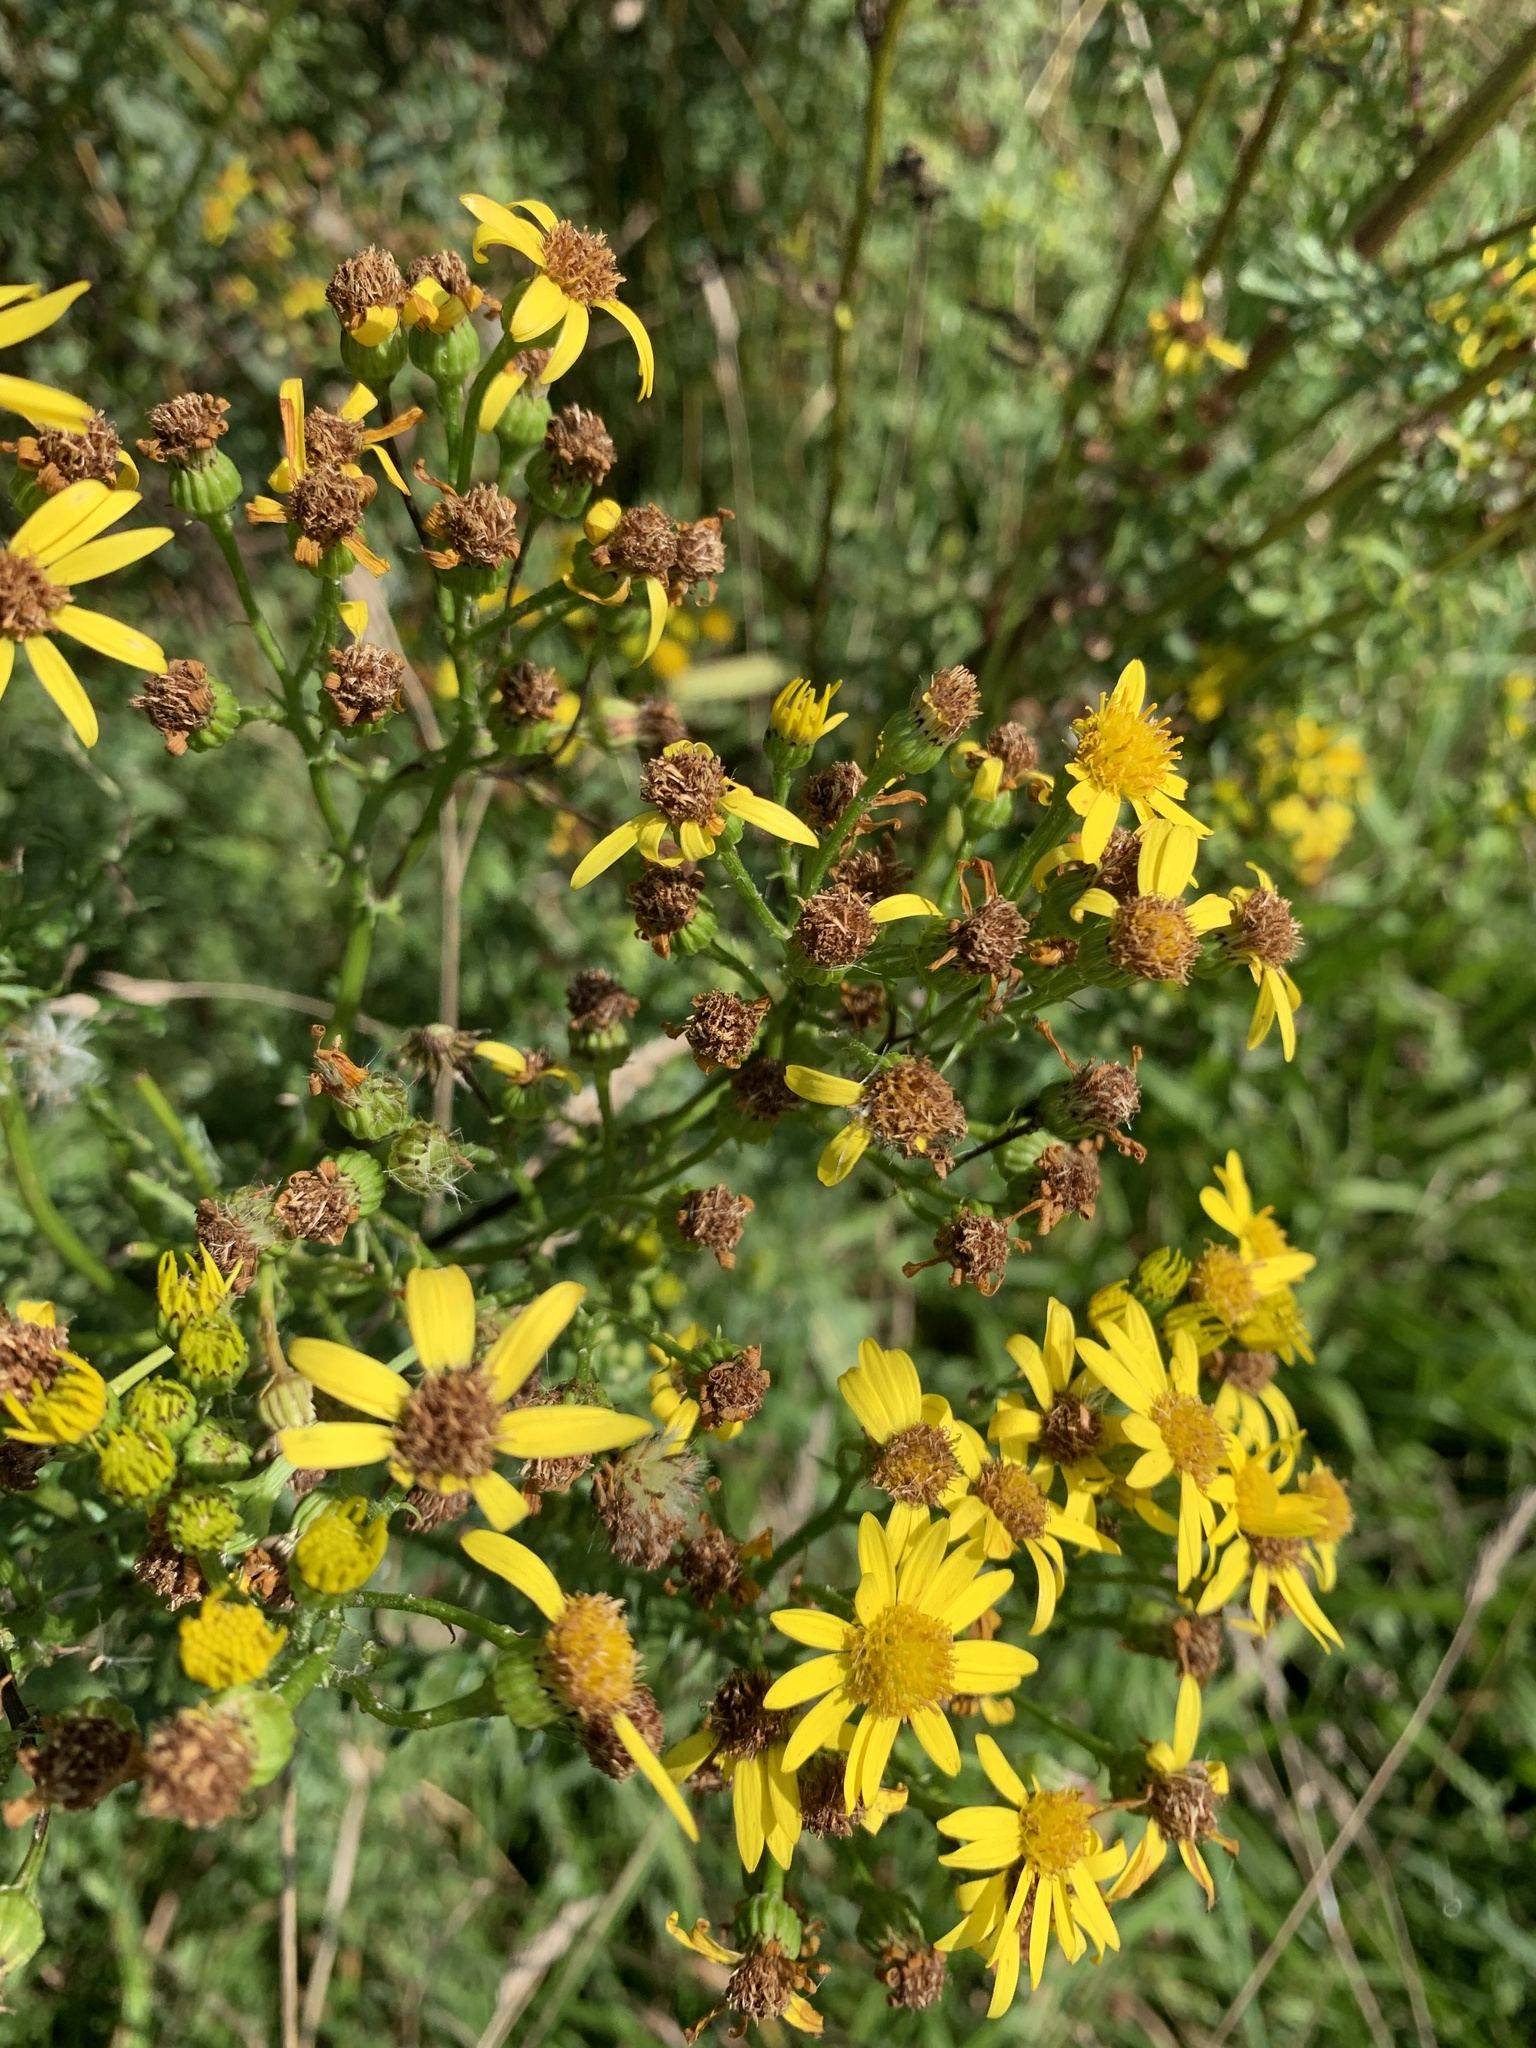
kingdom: Plantae
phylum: Tracheophyta
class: Magnoliopsida
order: Asterales
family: Asteraceae
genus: Jacobaea
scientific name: Jacobaea vulgaris
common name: Stinking willie
